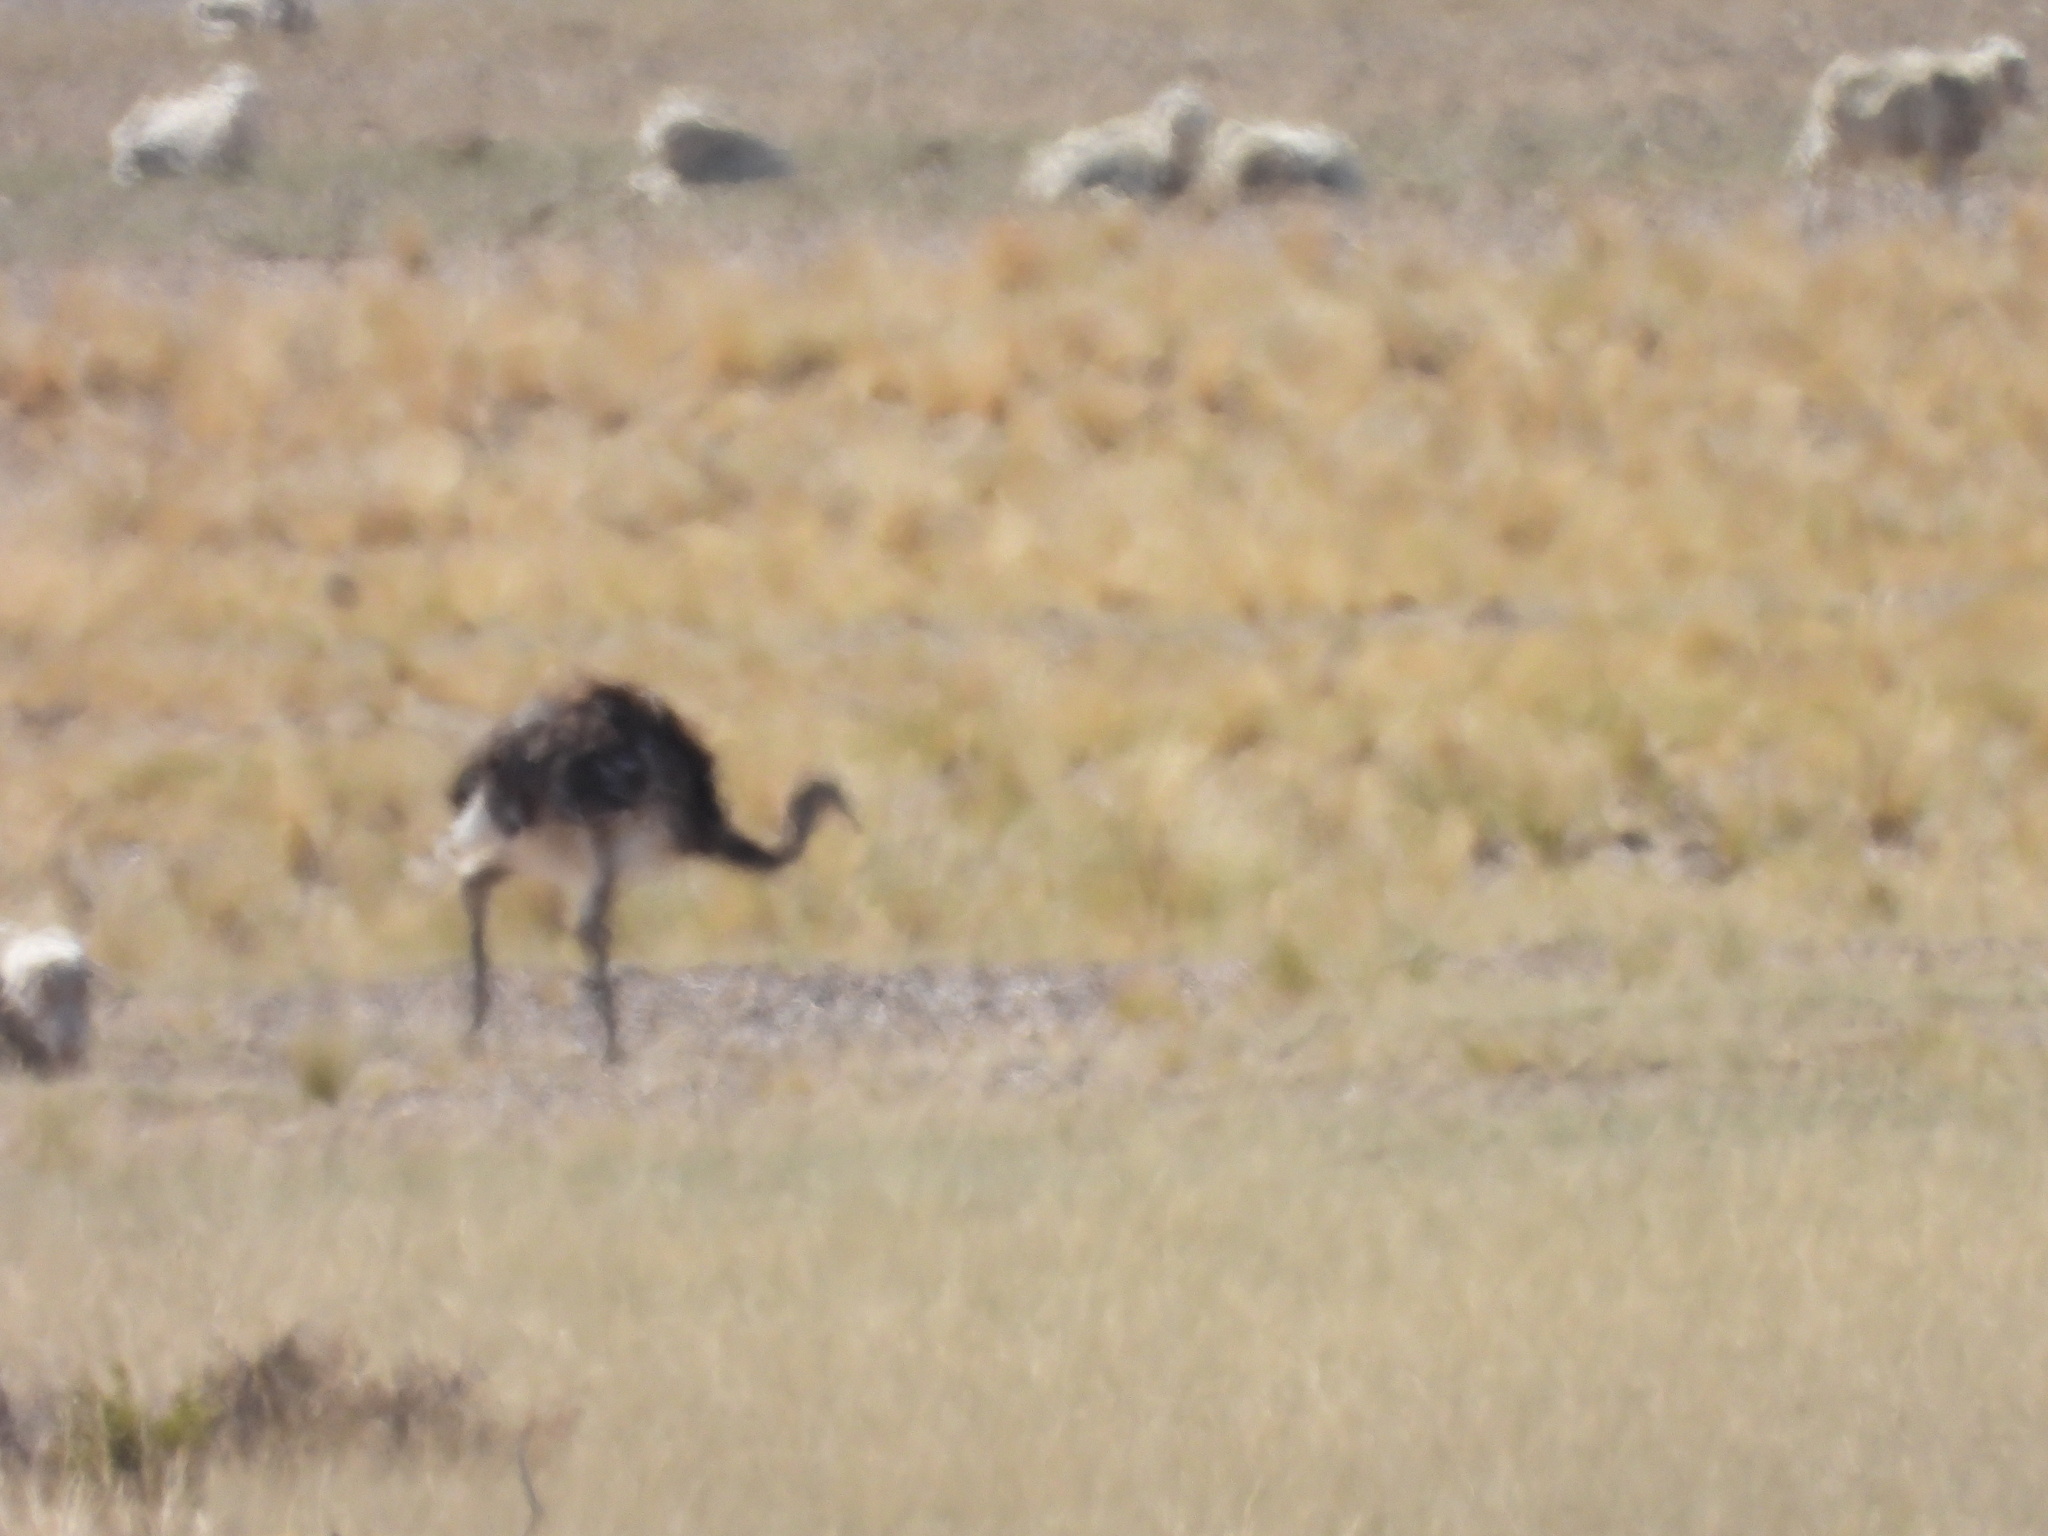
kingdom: Animalia
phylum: Chordata
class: Aves
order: Rheiformes
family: Rheidae
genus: Rhea
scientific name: Rhea pennata
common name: Lesser rhea
